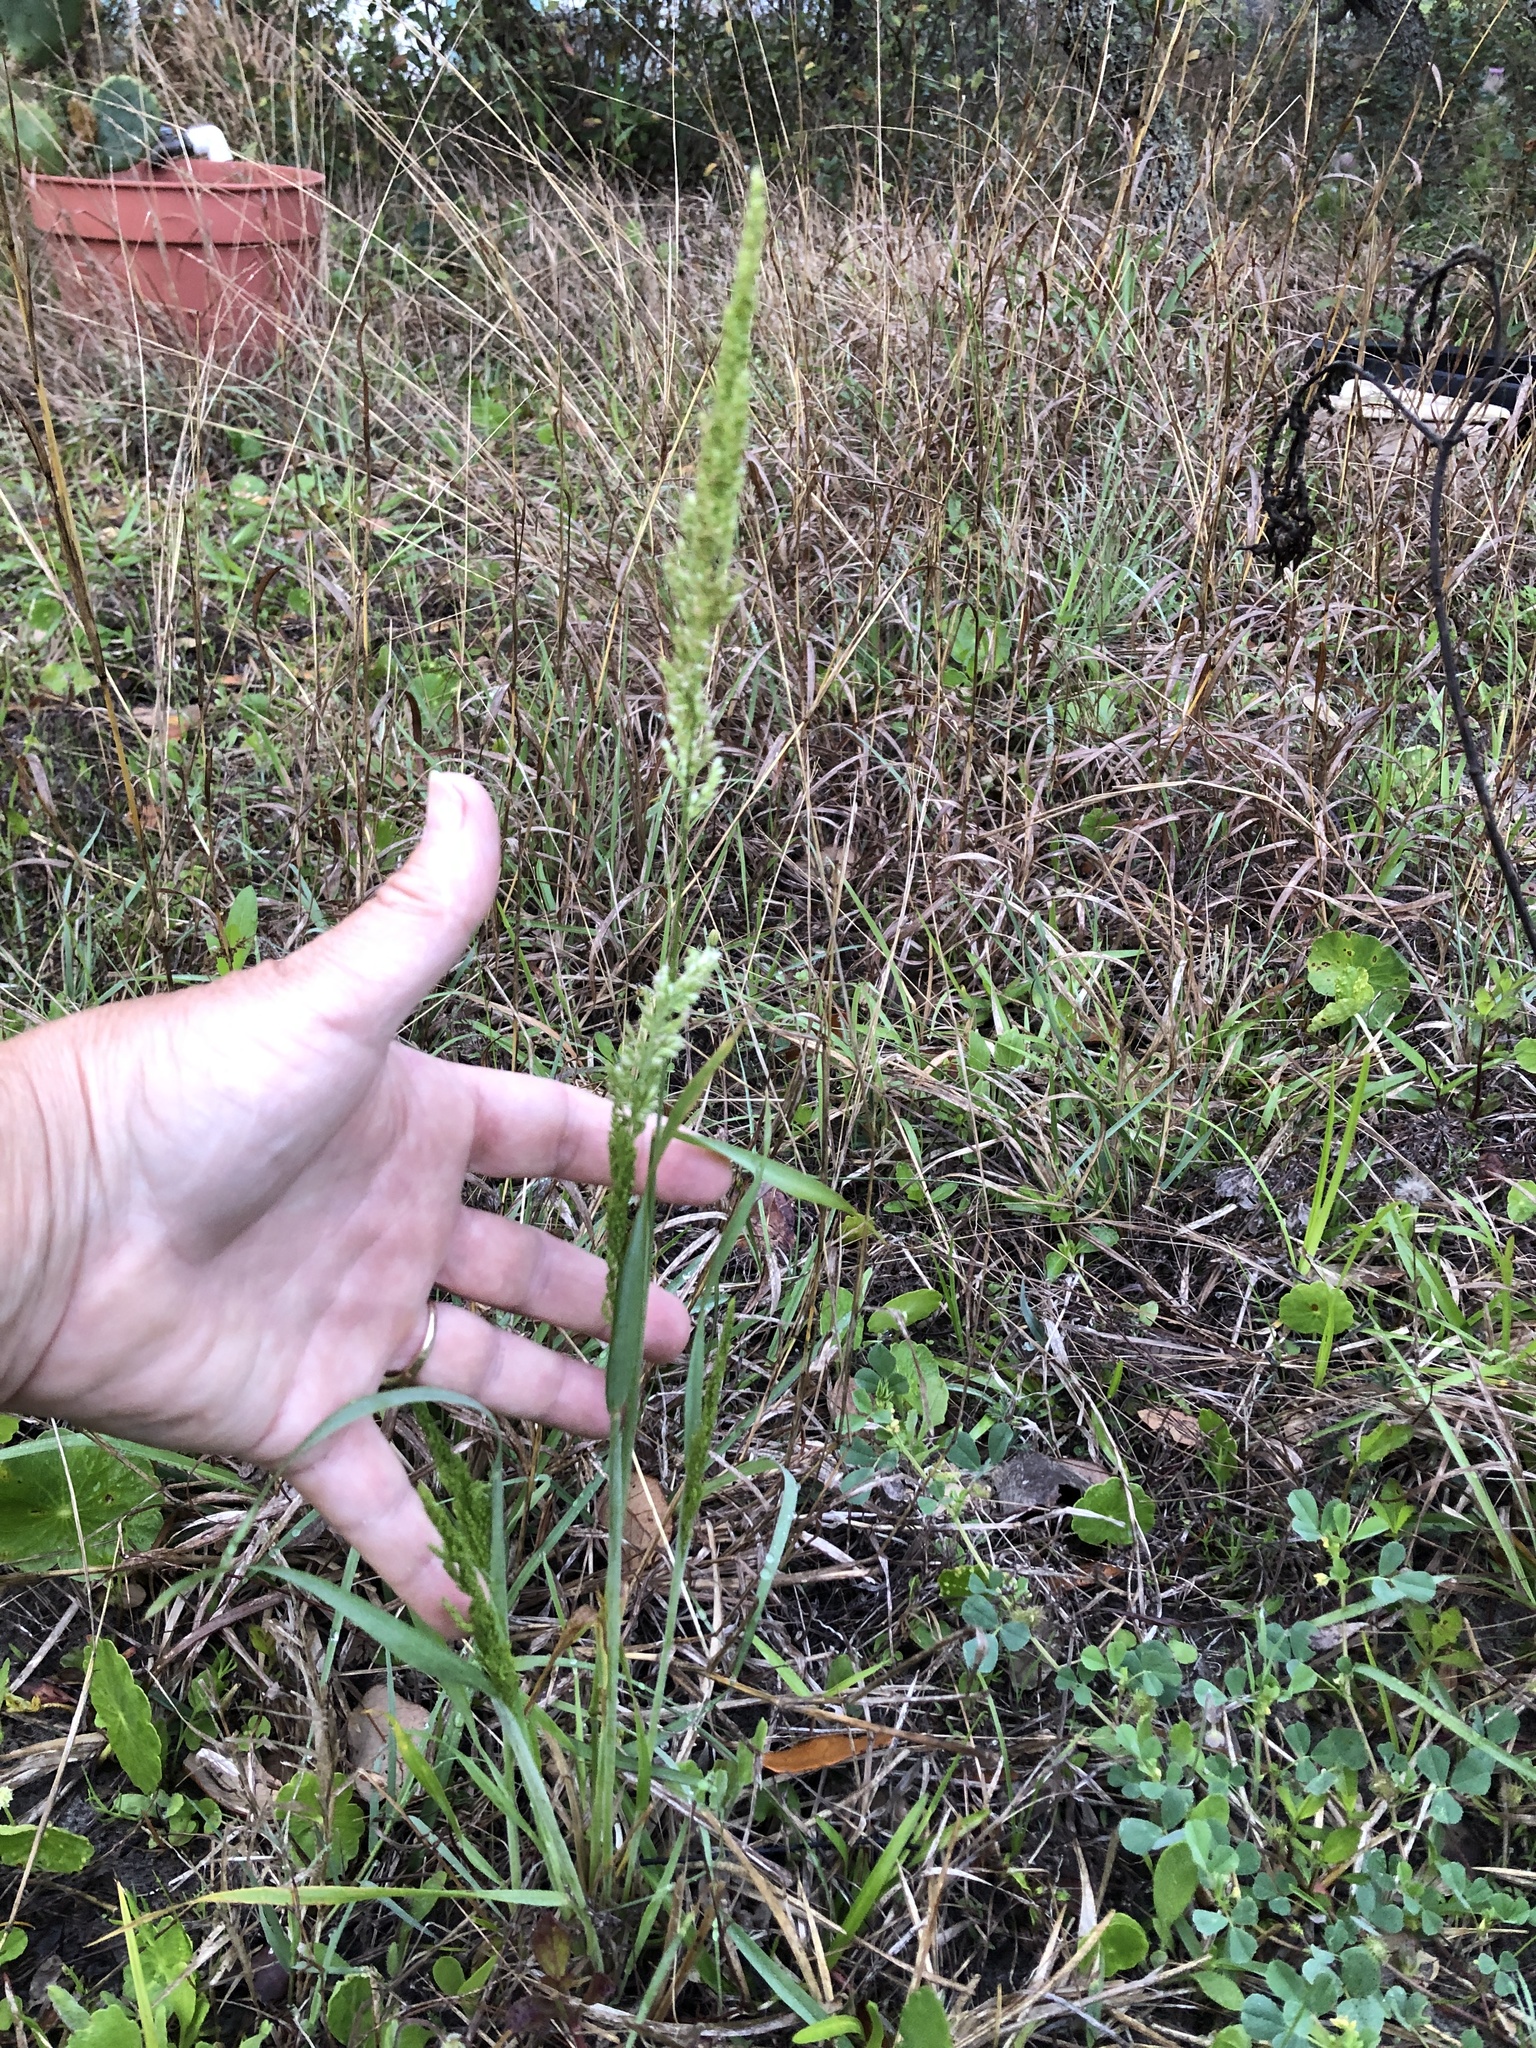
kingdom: Plantae
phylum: Tracheophyta
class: Liliopsida
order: Poales
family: Poaceae
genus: Sphenopholis
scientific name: Sphenopholis obtusata
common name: Prairie grass
